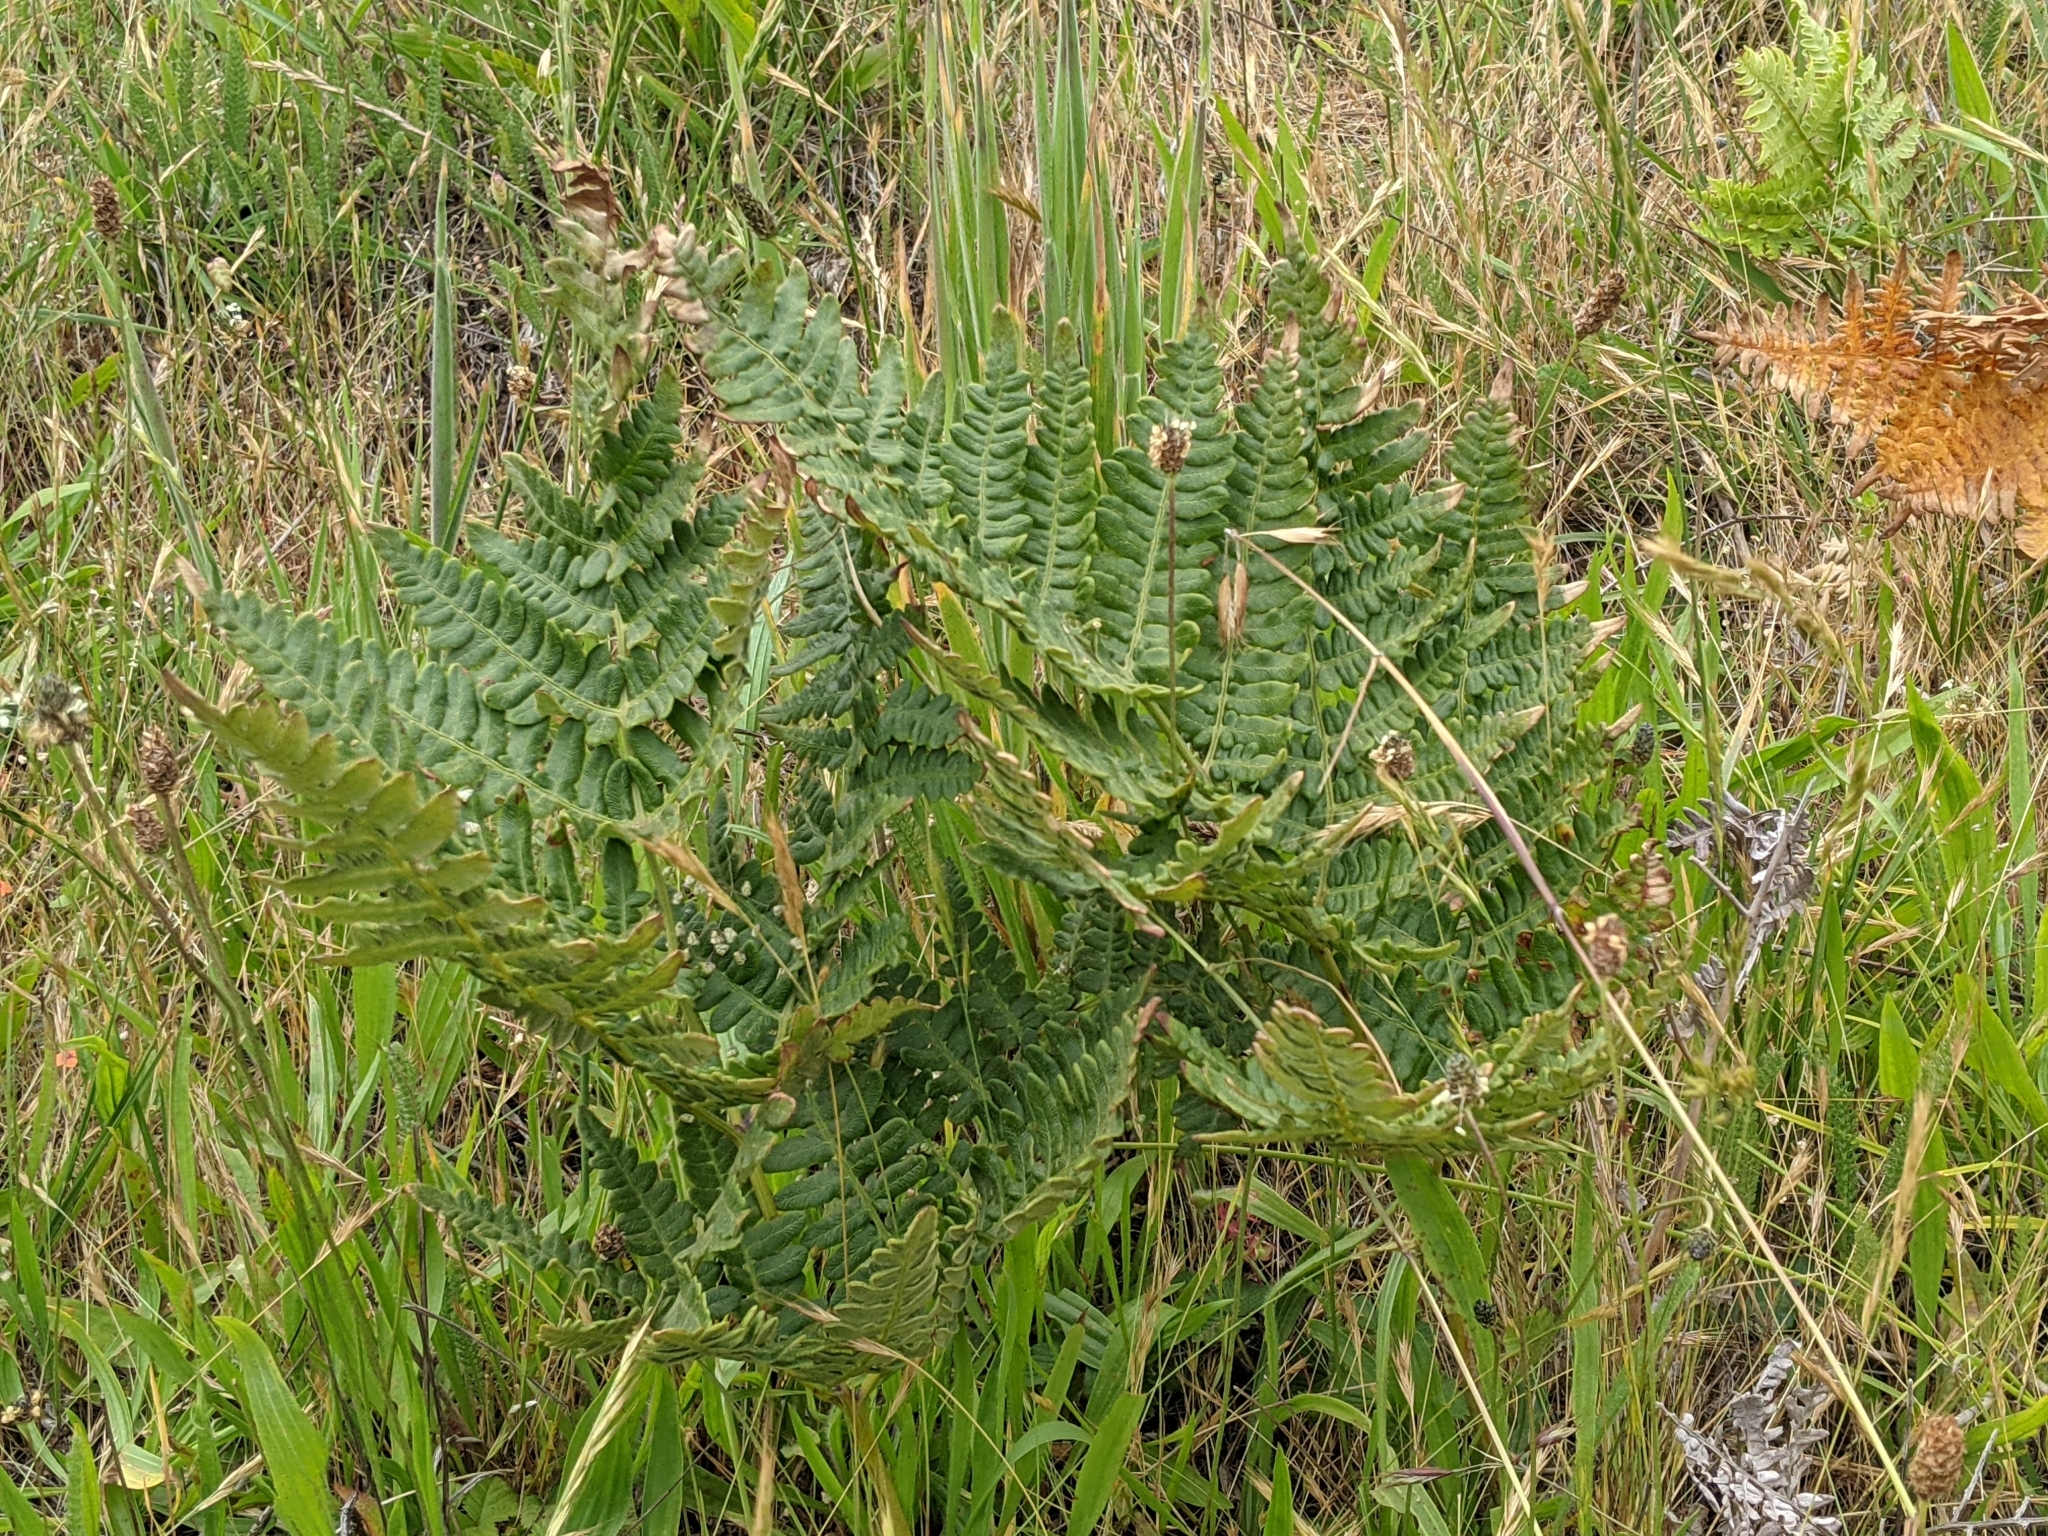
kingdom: Plantae
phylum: Tracheophyta
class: Polypodiopsida
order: Polypodiales
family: Dennstaedtiaceae
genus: Pteridium
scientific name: Pteridium aquilinum
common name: Bracken
